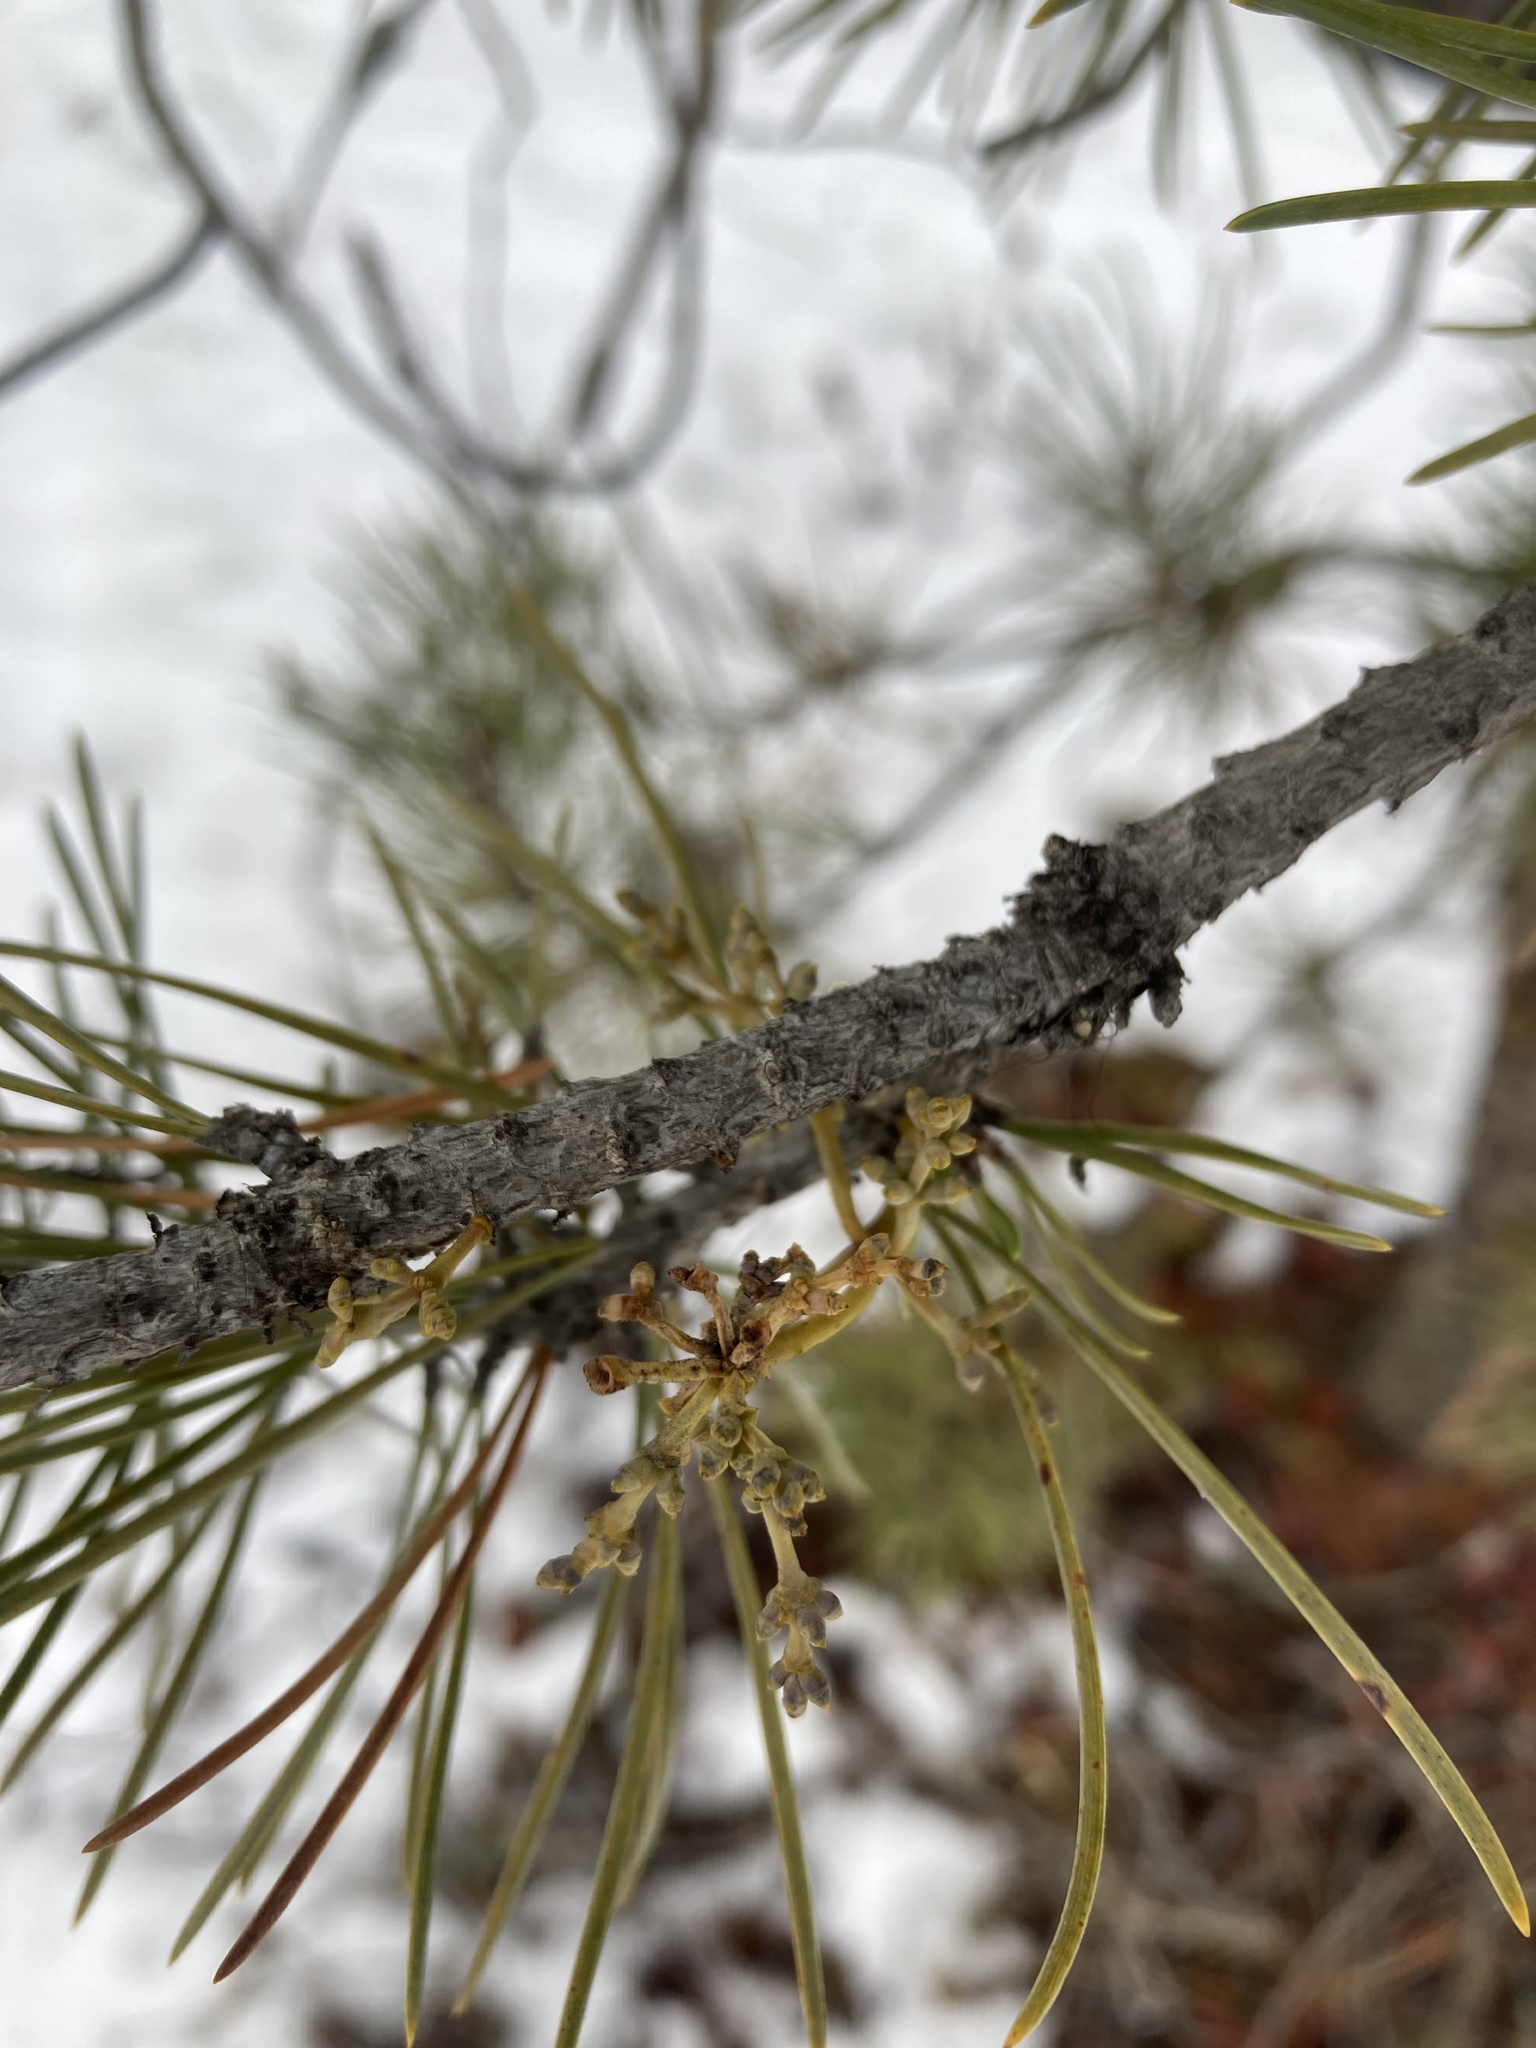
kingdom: Plantae
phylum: Tracheophyta
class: Magnoliopsida
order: Santalales
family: Viscaceae
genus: Arceuthobium
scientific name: Arceuthobium americanum
